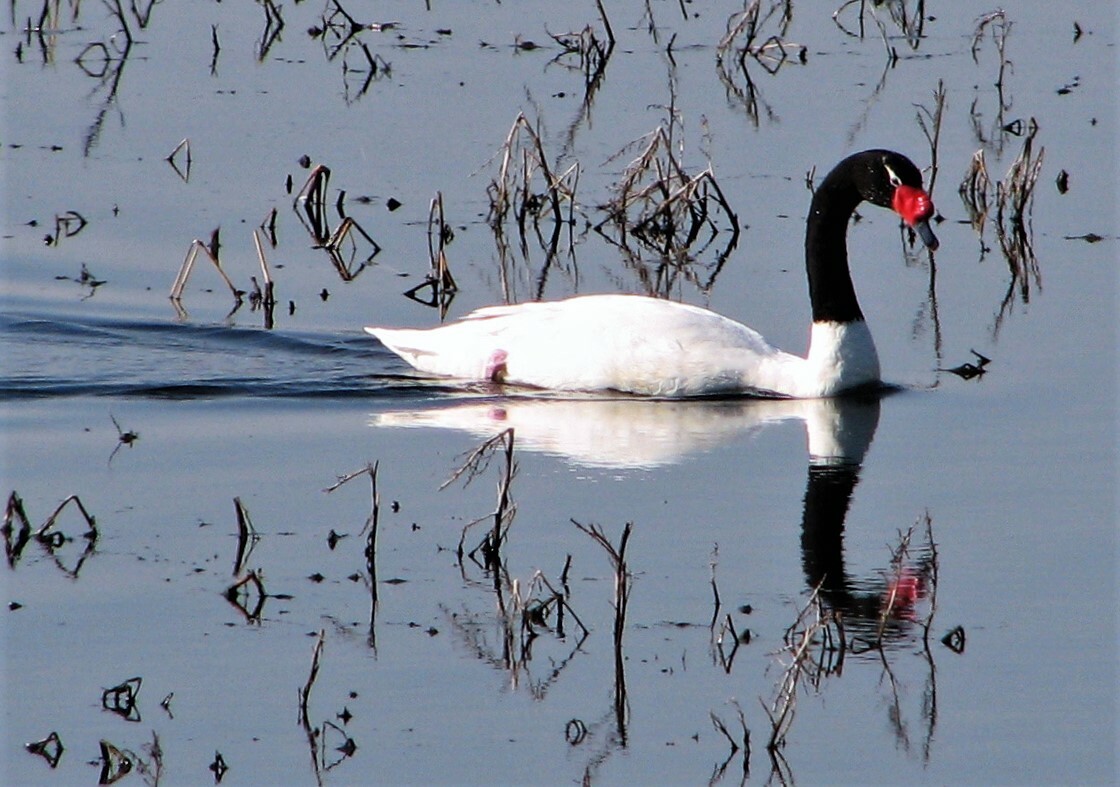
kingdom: Animalia
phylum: Chordata
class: Aves
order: Anseriformes
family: Anatidae
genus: Cygnus
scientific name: Cygnus melancoryphus
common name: Black-necked swan
